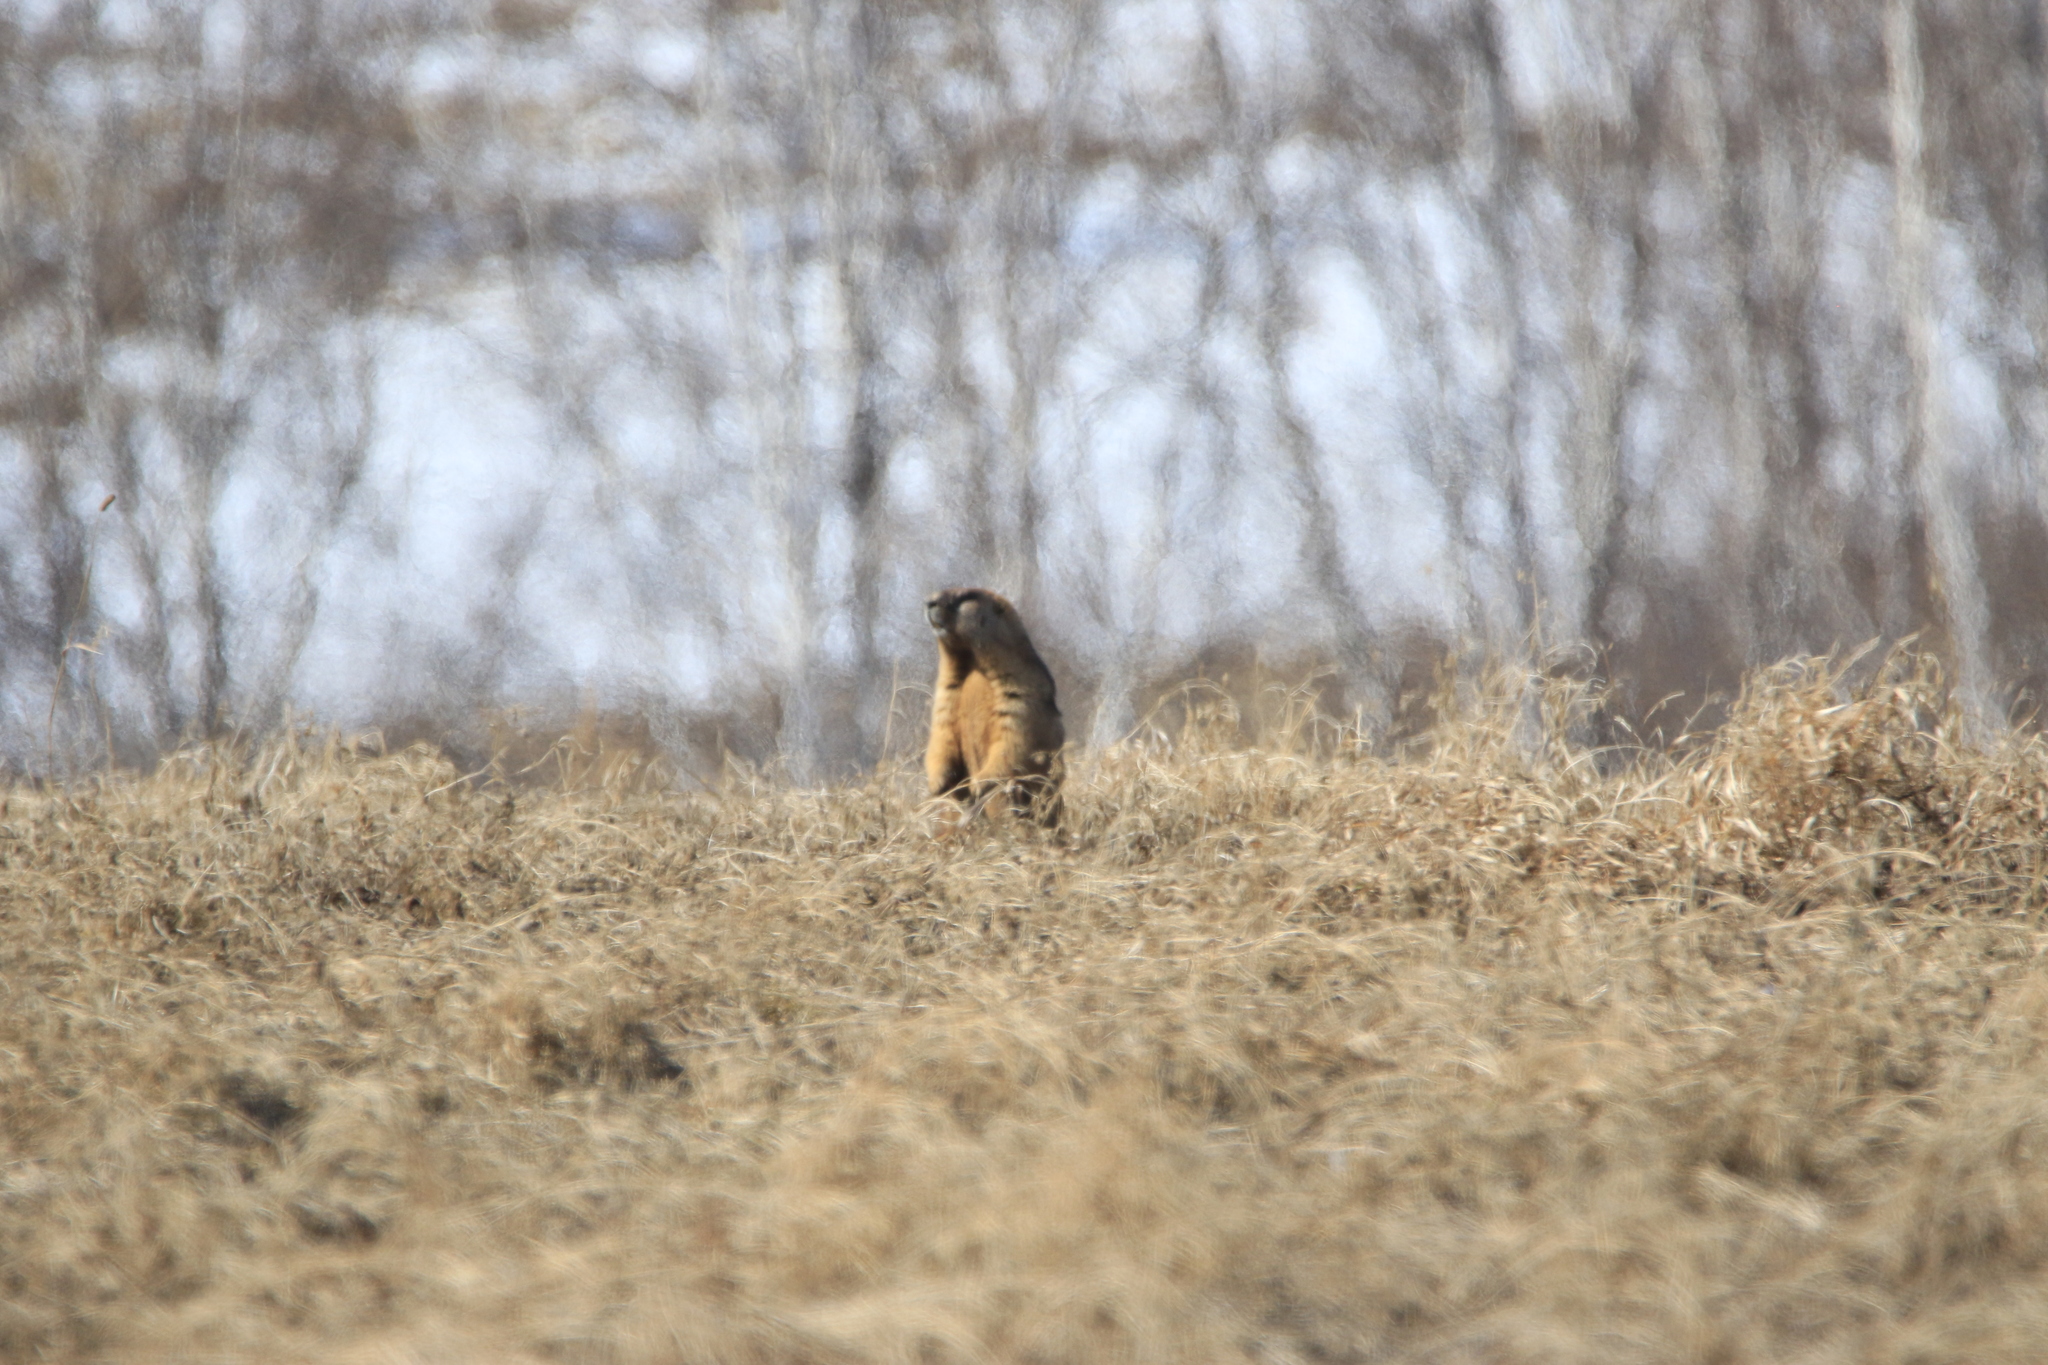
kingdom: Animalia
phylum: Chordata
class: Mammalia
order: Rodentia
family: Sciuridae
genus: Marmota
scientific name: Marmota kastschenkoi
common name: Forest steppe marmot
